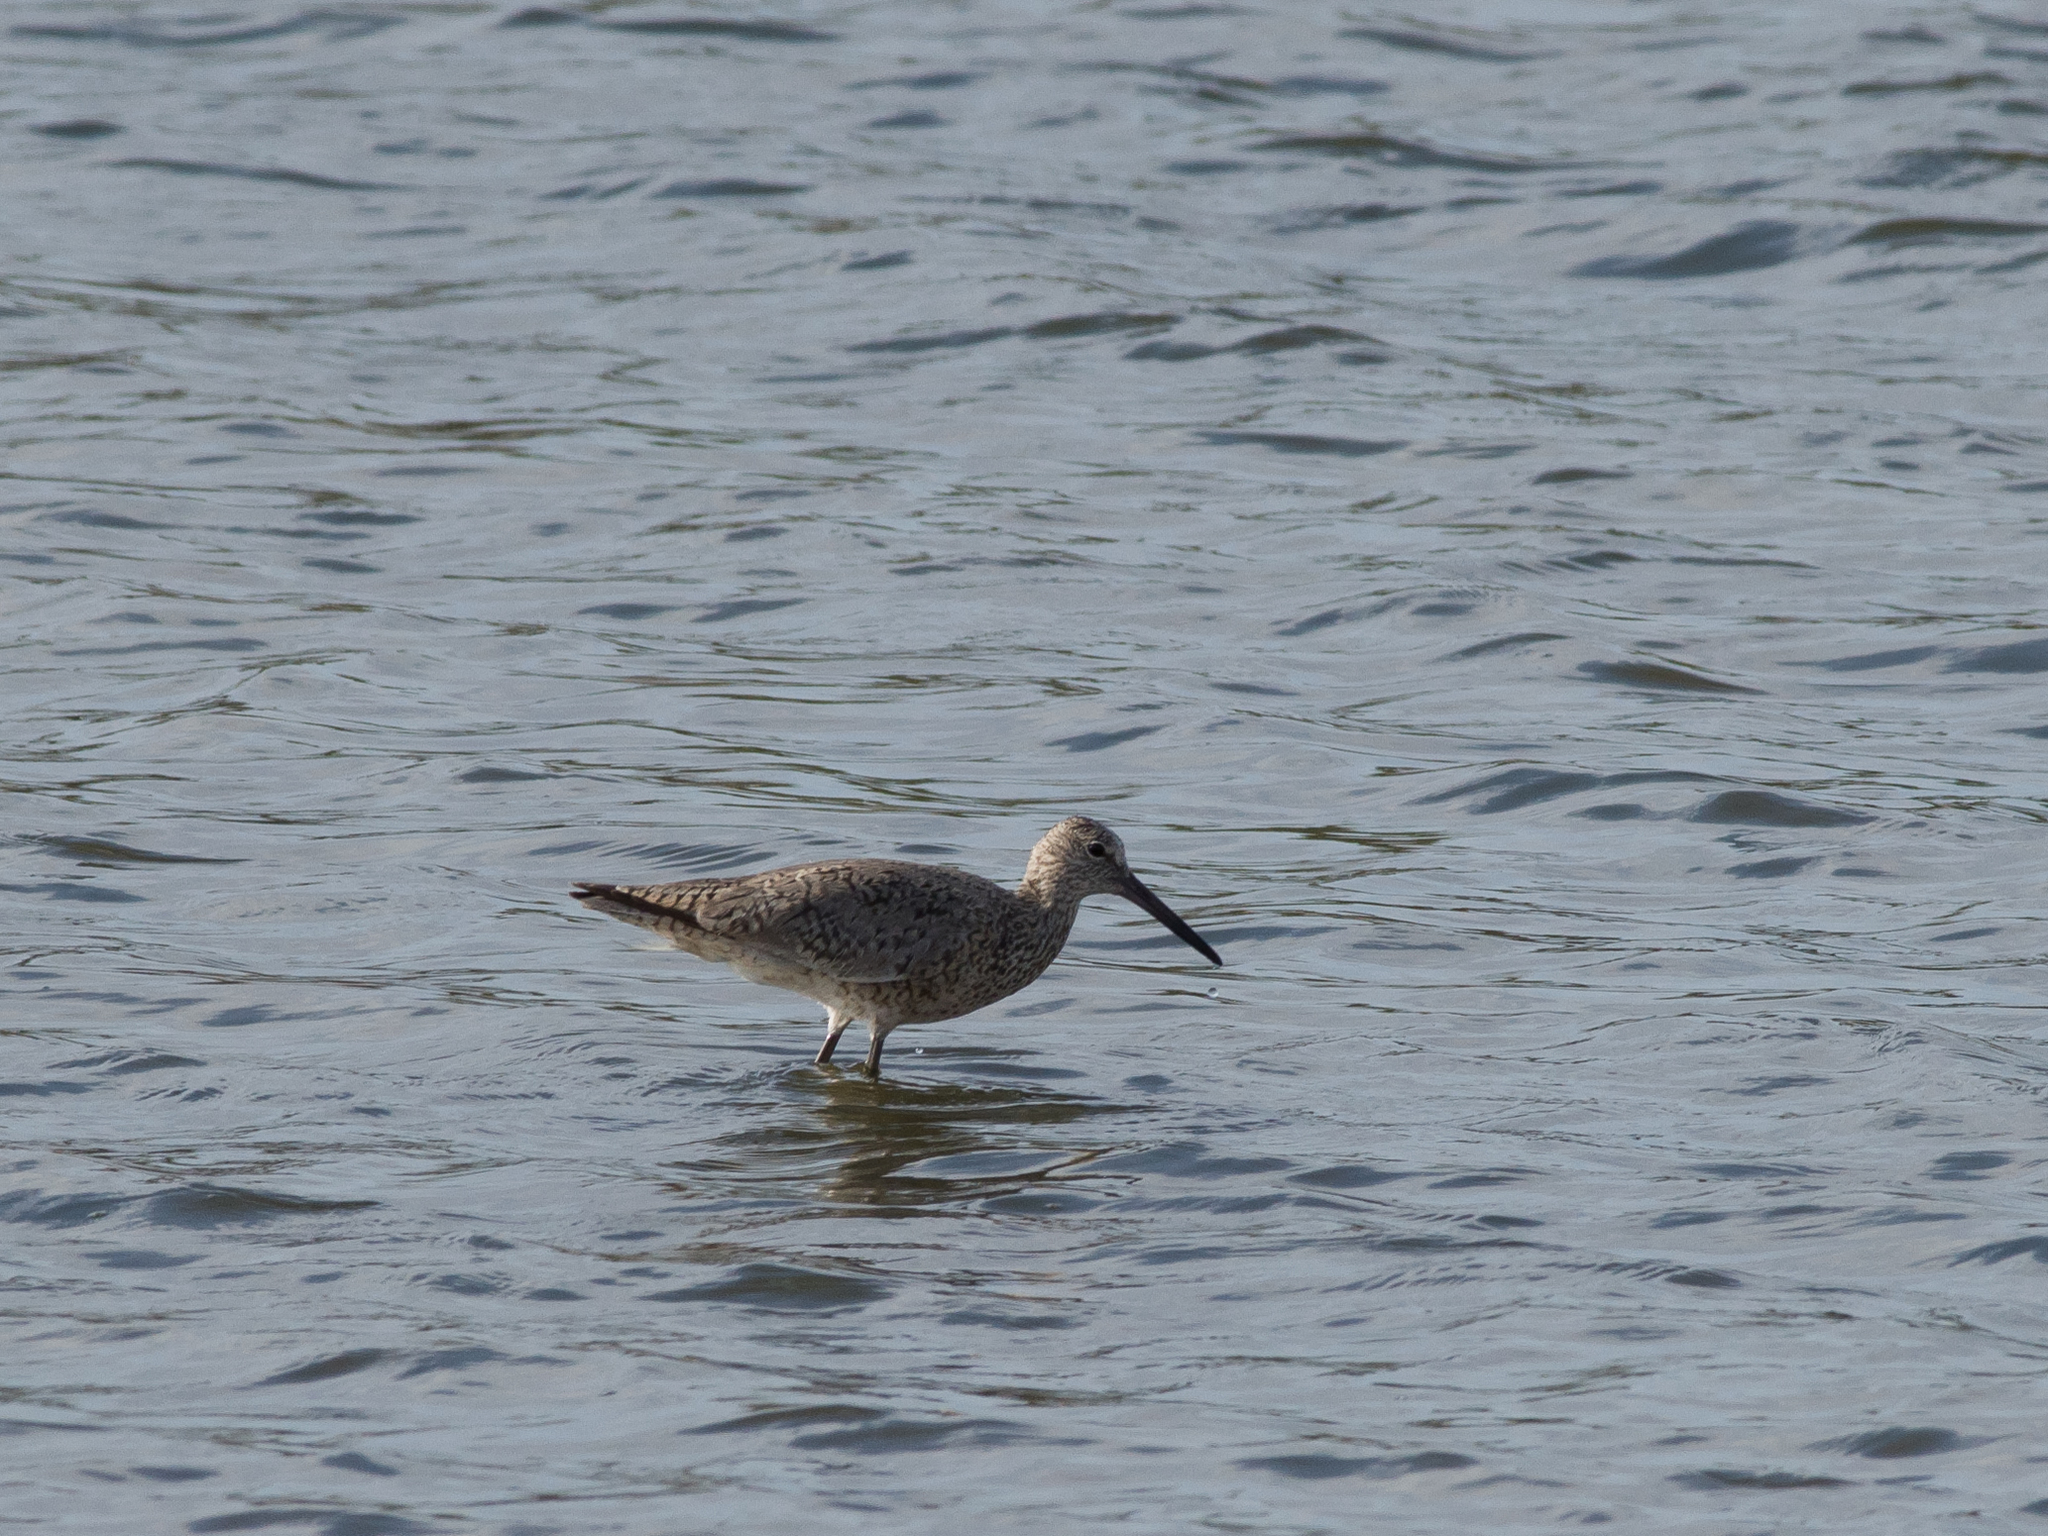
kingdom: Animalia
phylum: Chordata
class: Aves
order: Charadriiformes
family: Scolopacidae
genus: Tringa
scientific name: Tringa semipalmata
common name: Willet
